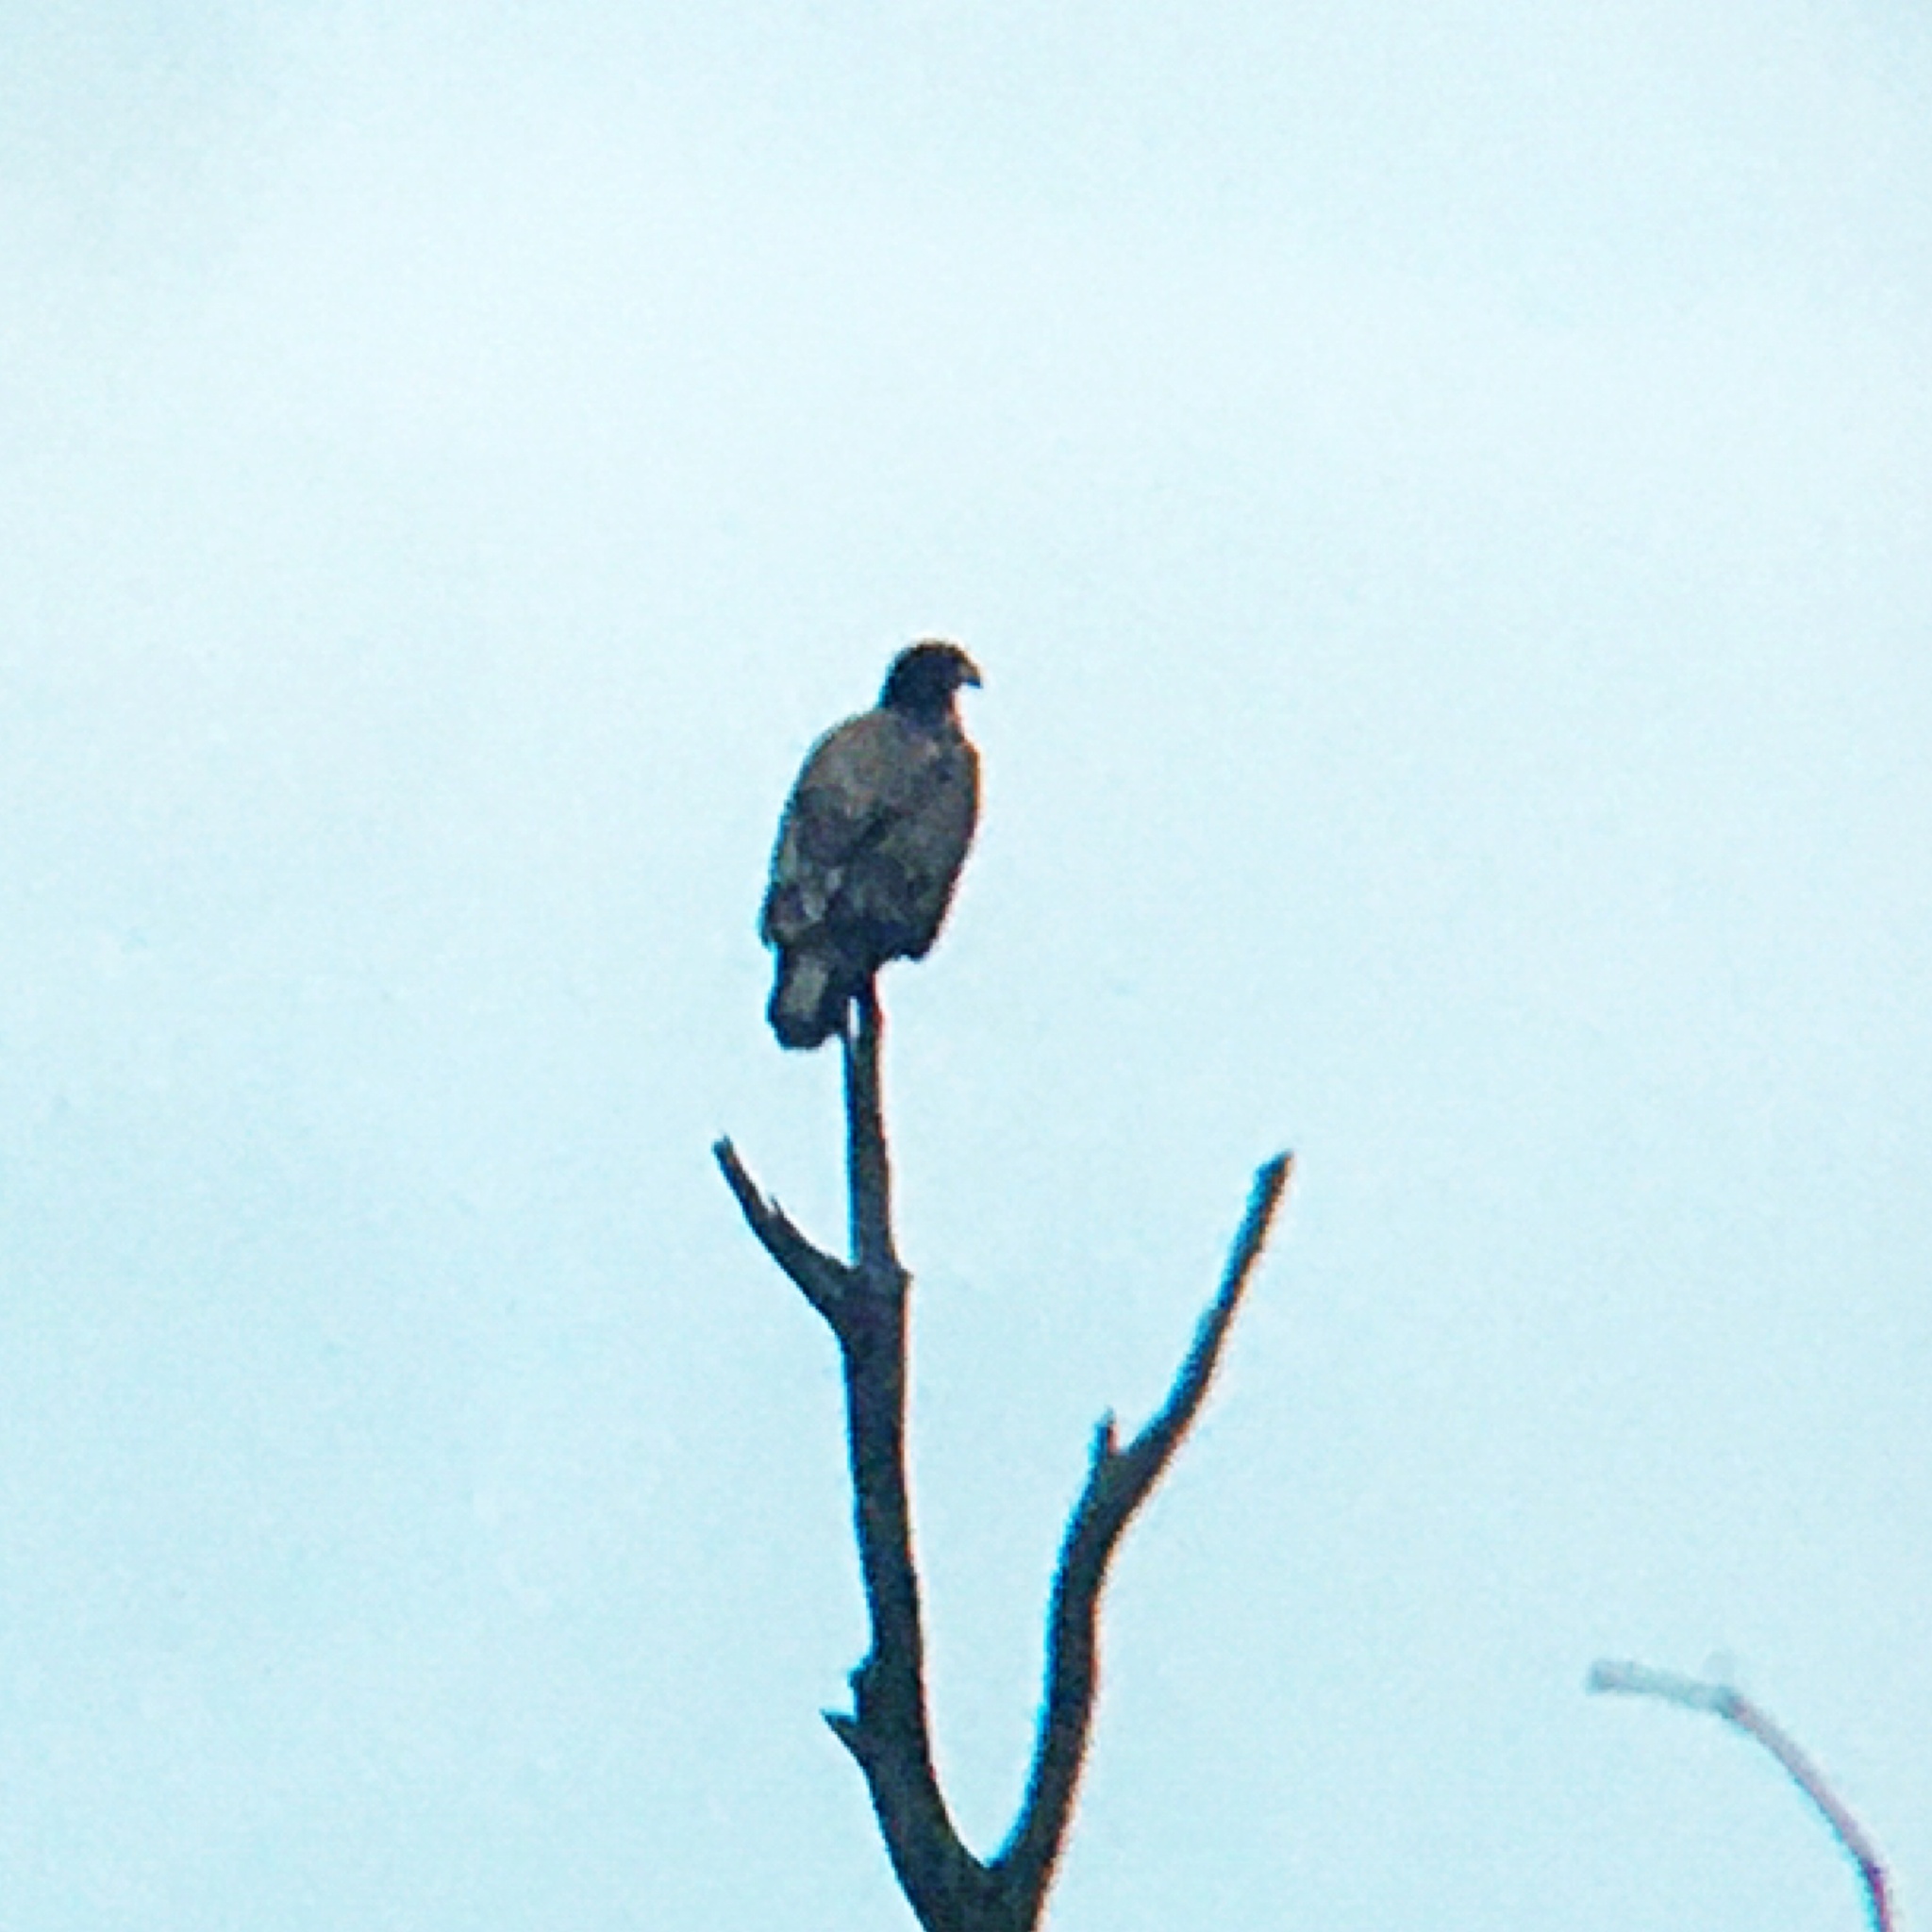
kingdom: Animalia
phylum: Chordata
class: Aves
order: Accipitriformes
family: Accipitridae
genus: Haliaeetus
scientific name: Haliaeetus leucocephalus
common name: Bald eagle
